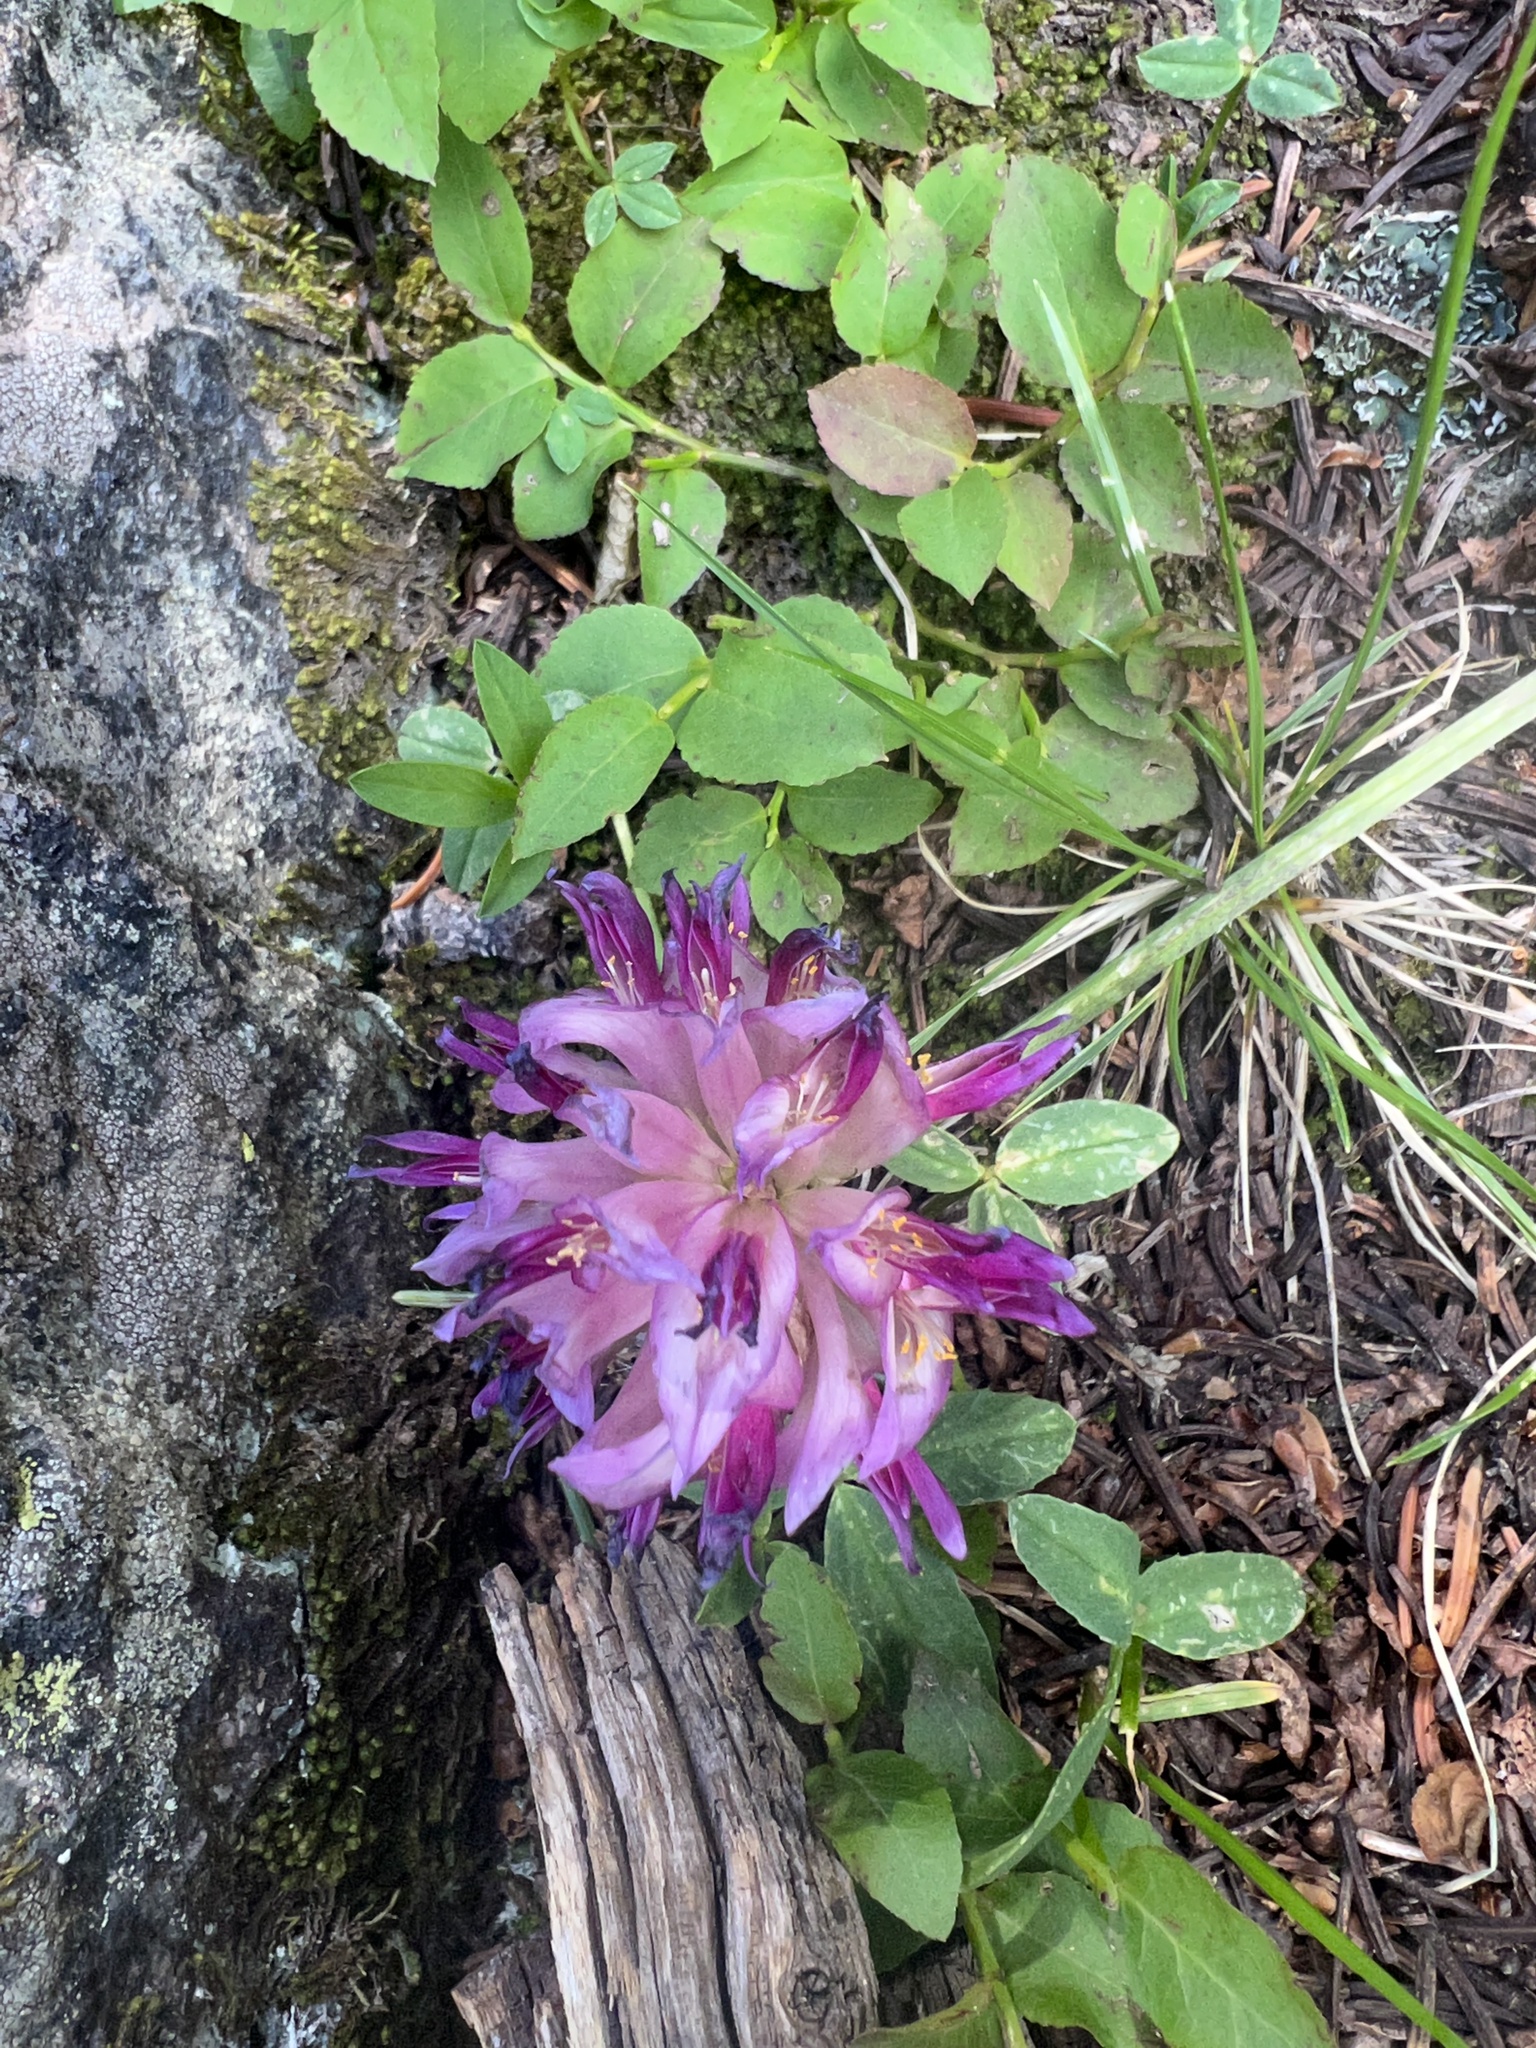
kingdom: Plantae
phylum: Tracheophyta
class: Magnoliopsida
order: Fabales
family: Fabaceae
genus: Trifolium
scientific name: Trifolium parryi
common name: Parry's clover
